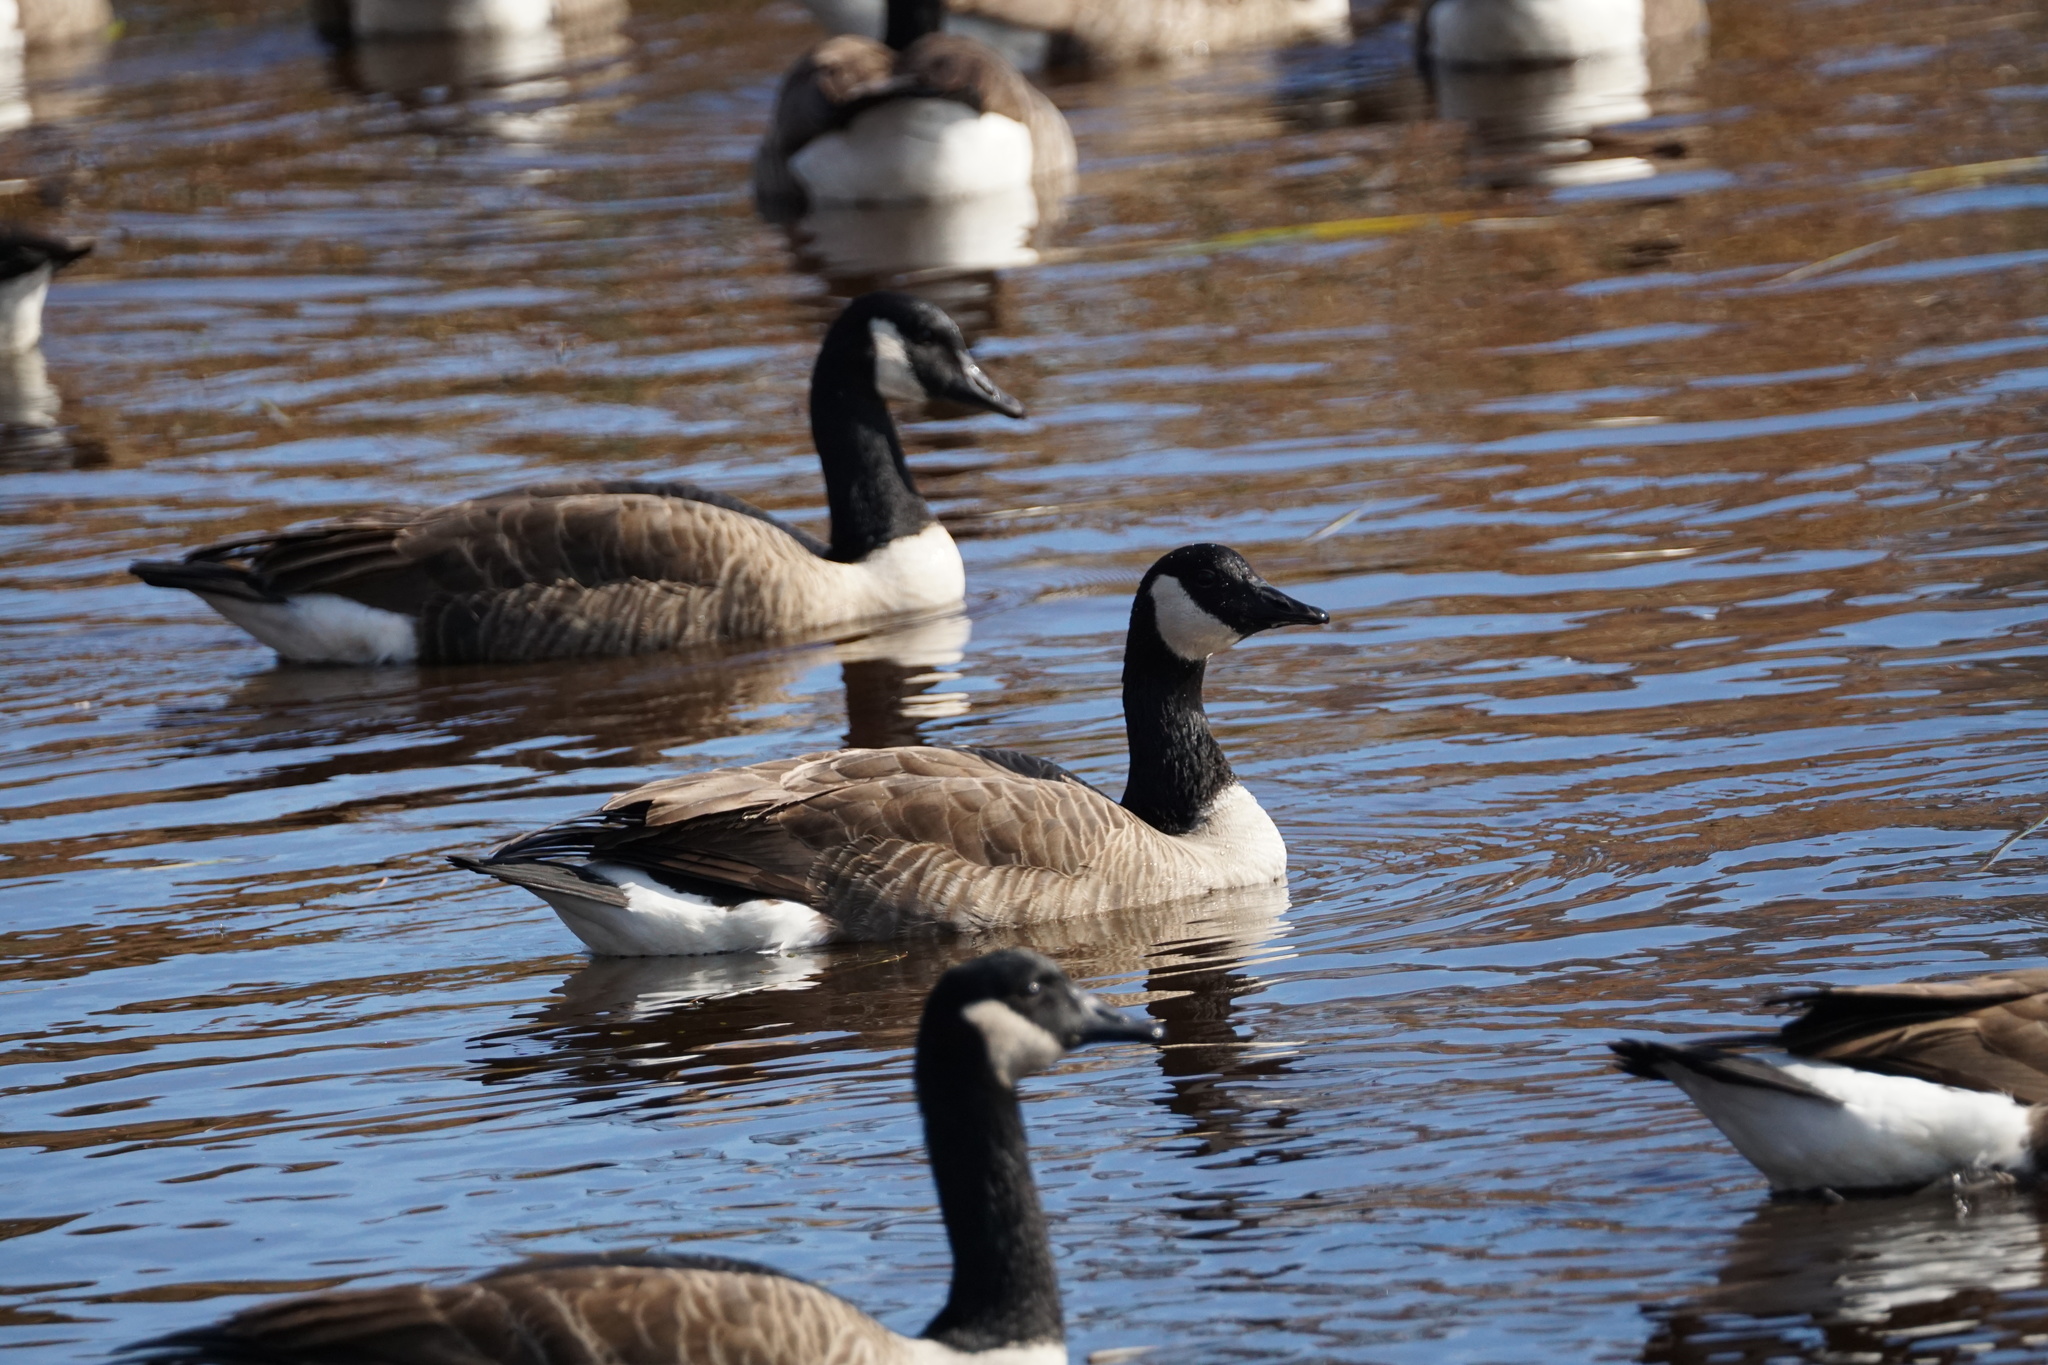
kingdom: Animalia
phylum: Chordata
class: Aves
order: Anseriformes
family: Anatidae
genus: Branta
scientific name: Branta canadensis
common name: Canada goose
